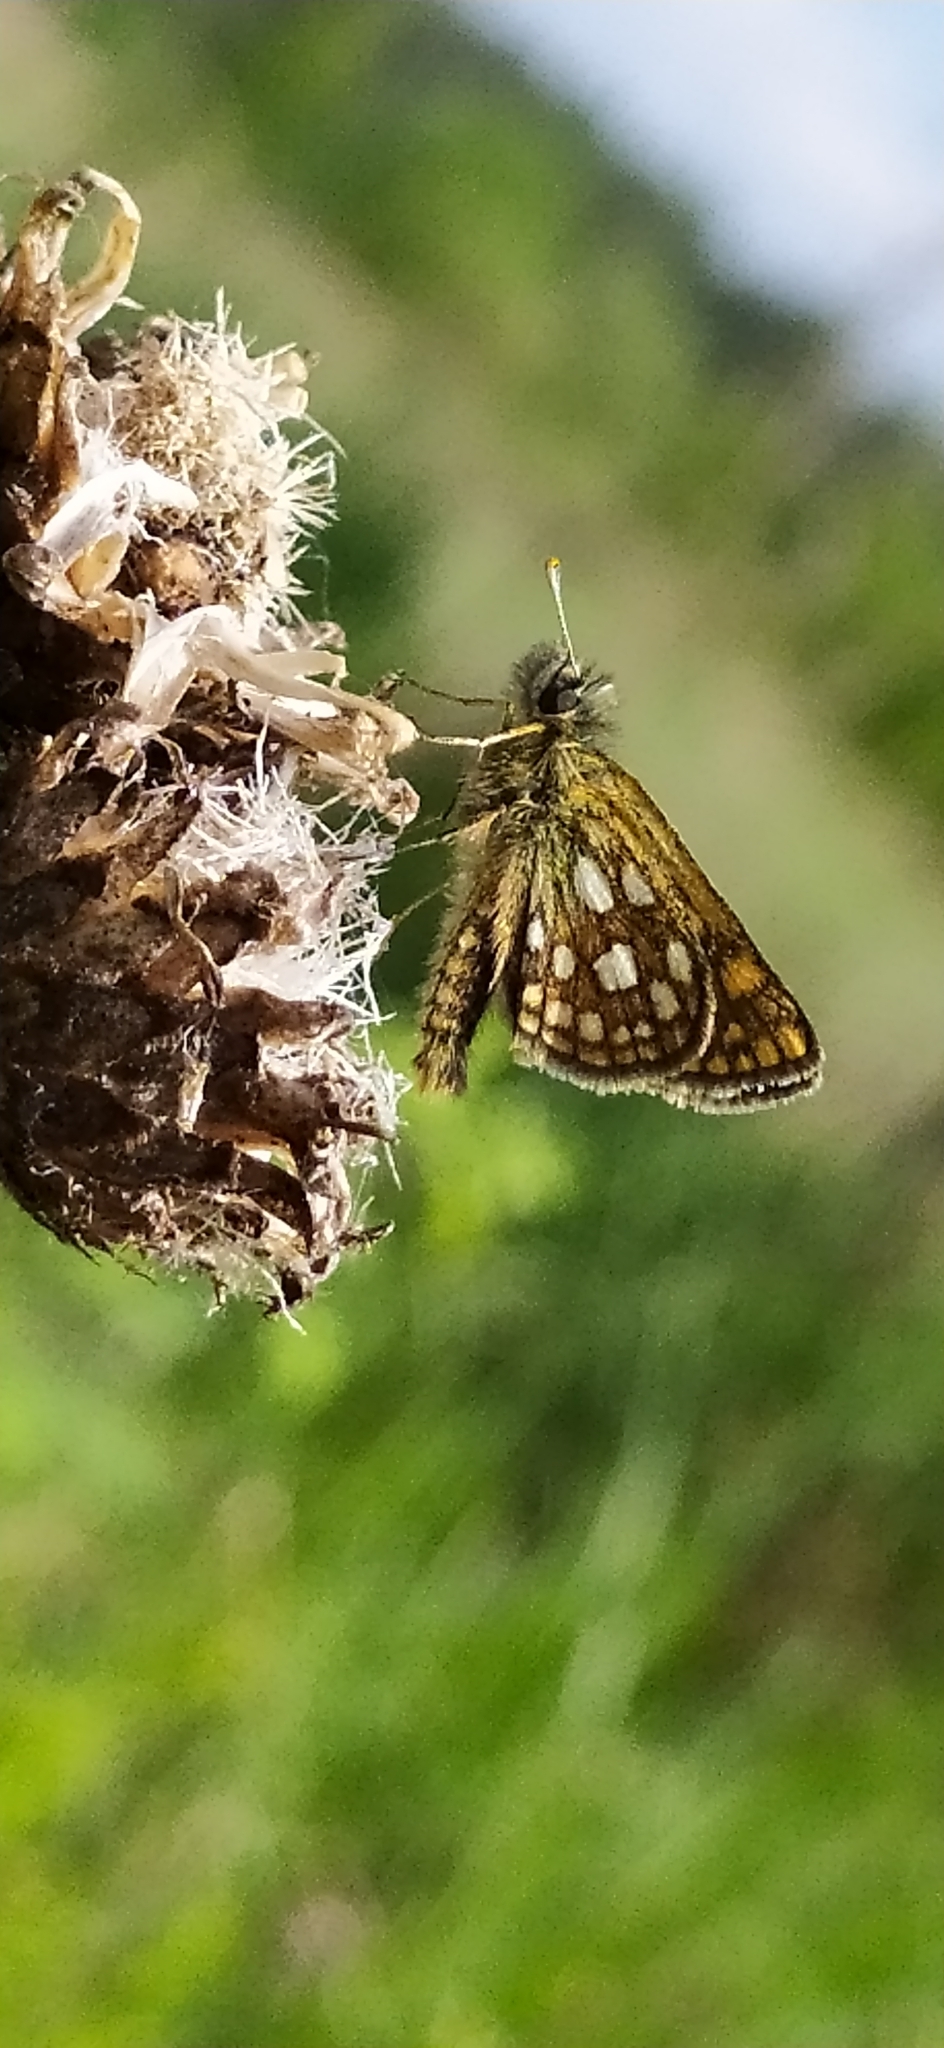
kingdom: Animalia
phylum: Arthropoda
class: Insecta
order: Lepidoptera
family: Hesperiidae
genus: Carterocephalus
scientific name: Carterocephalus palaemon
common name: Chequered skipper
